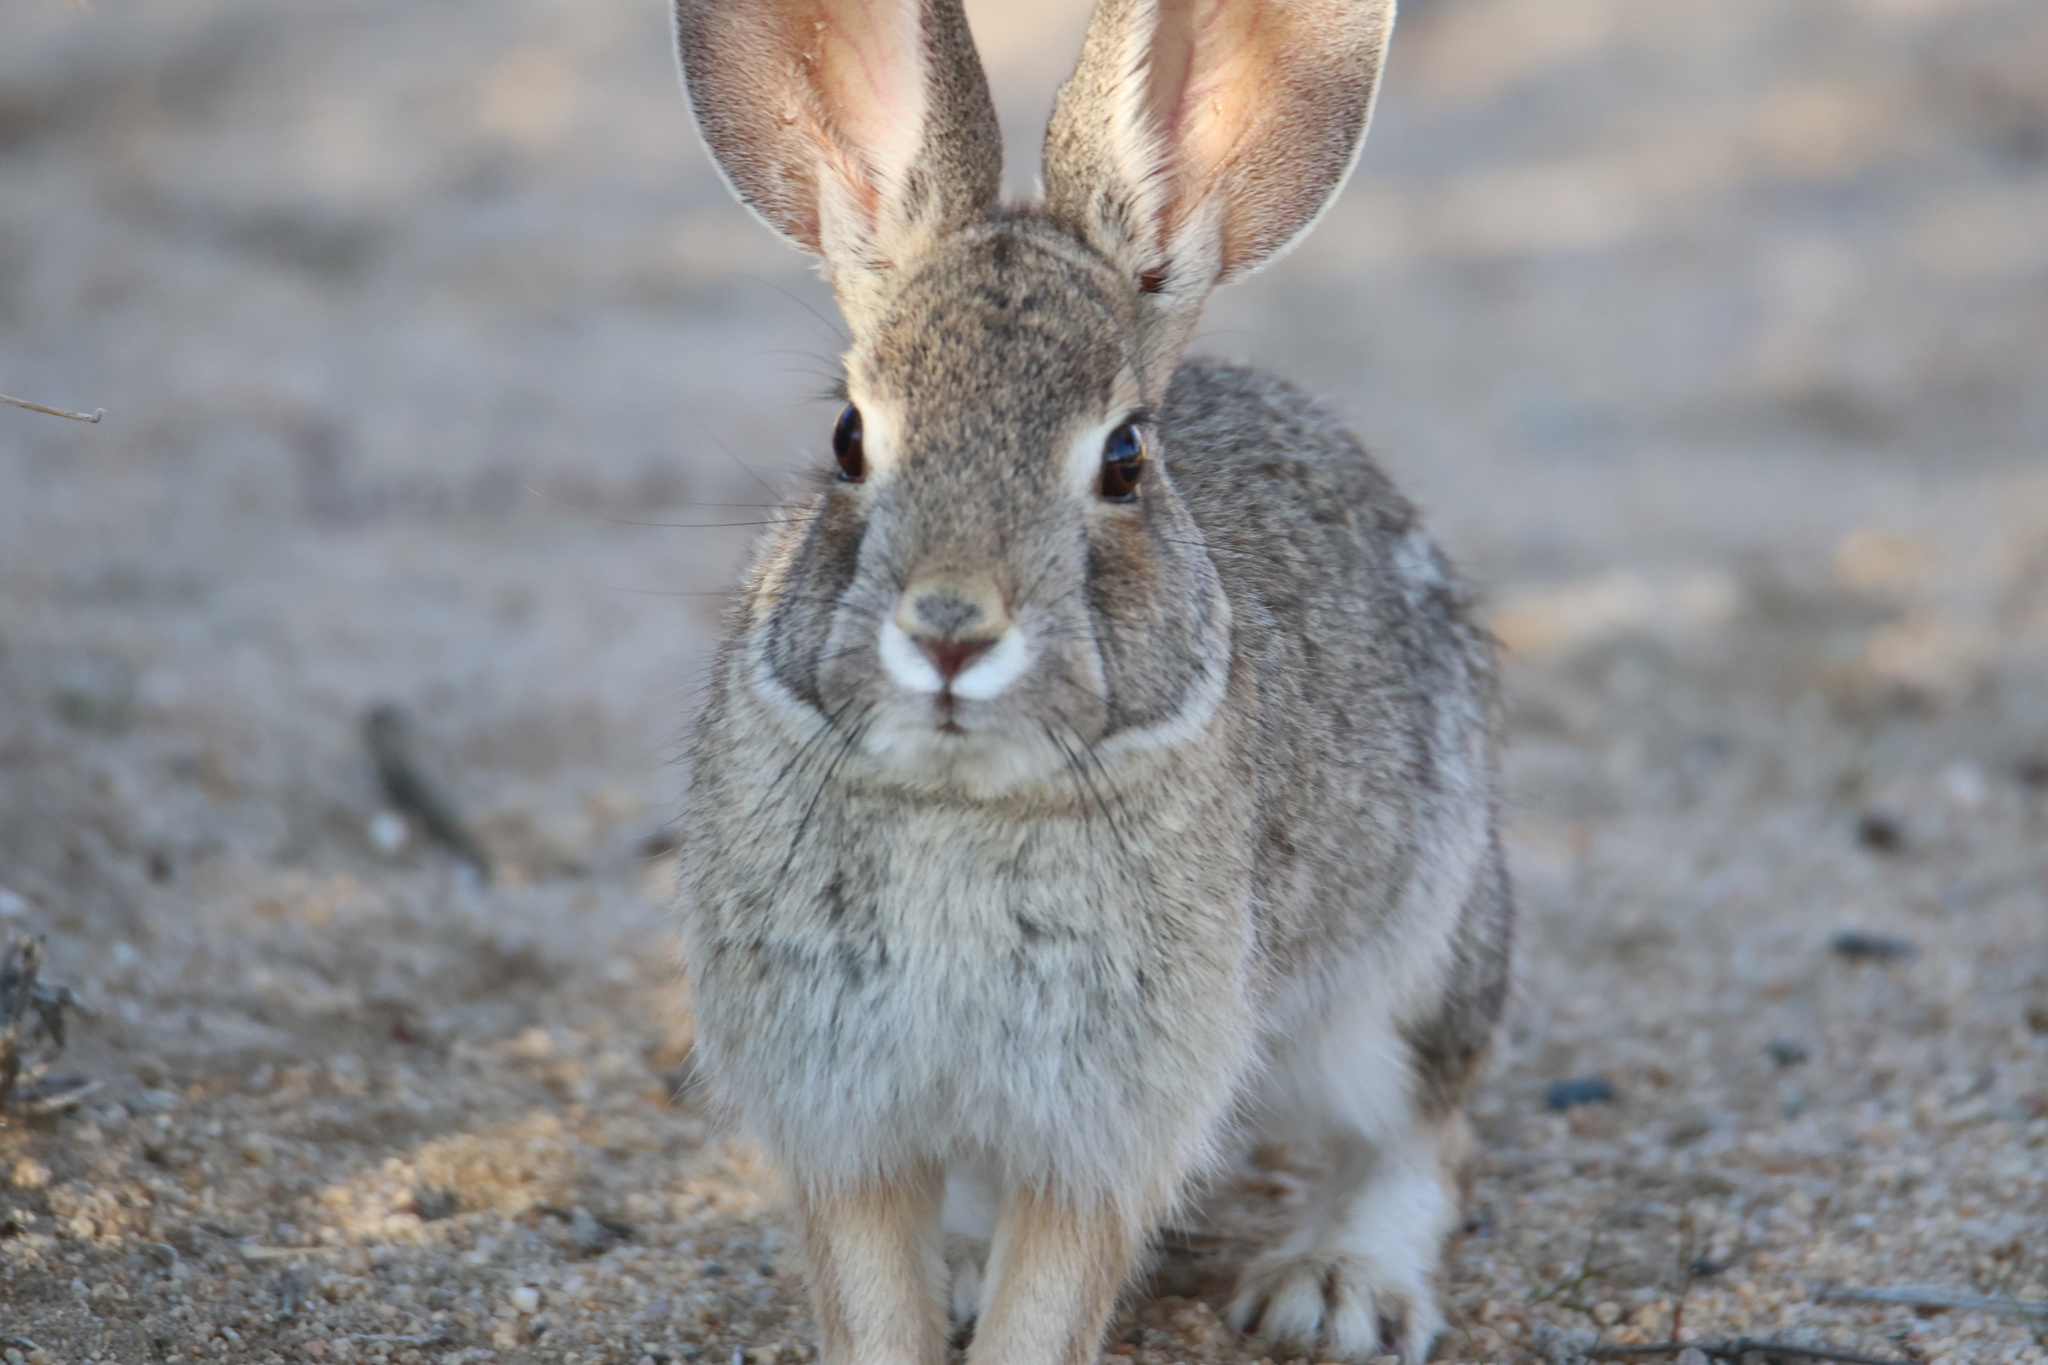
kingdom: Animalia
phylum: Chordata
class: Mammalia
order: Lagomorpha
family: Leporidae
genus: Sylvilagus
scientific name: Sylvilagus audubonii
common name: Desert cottontail
